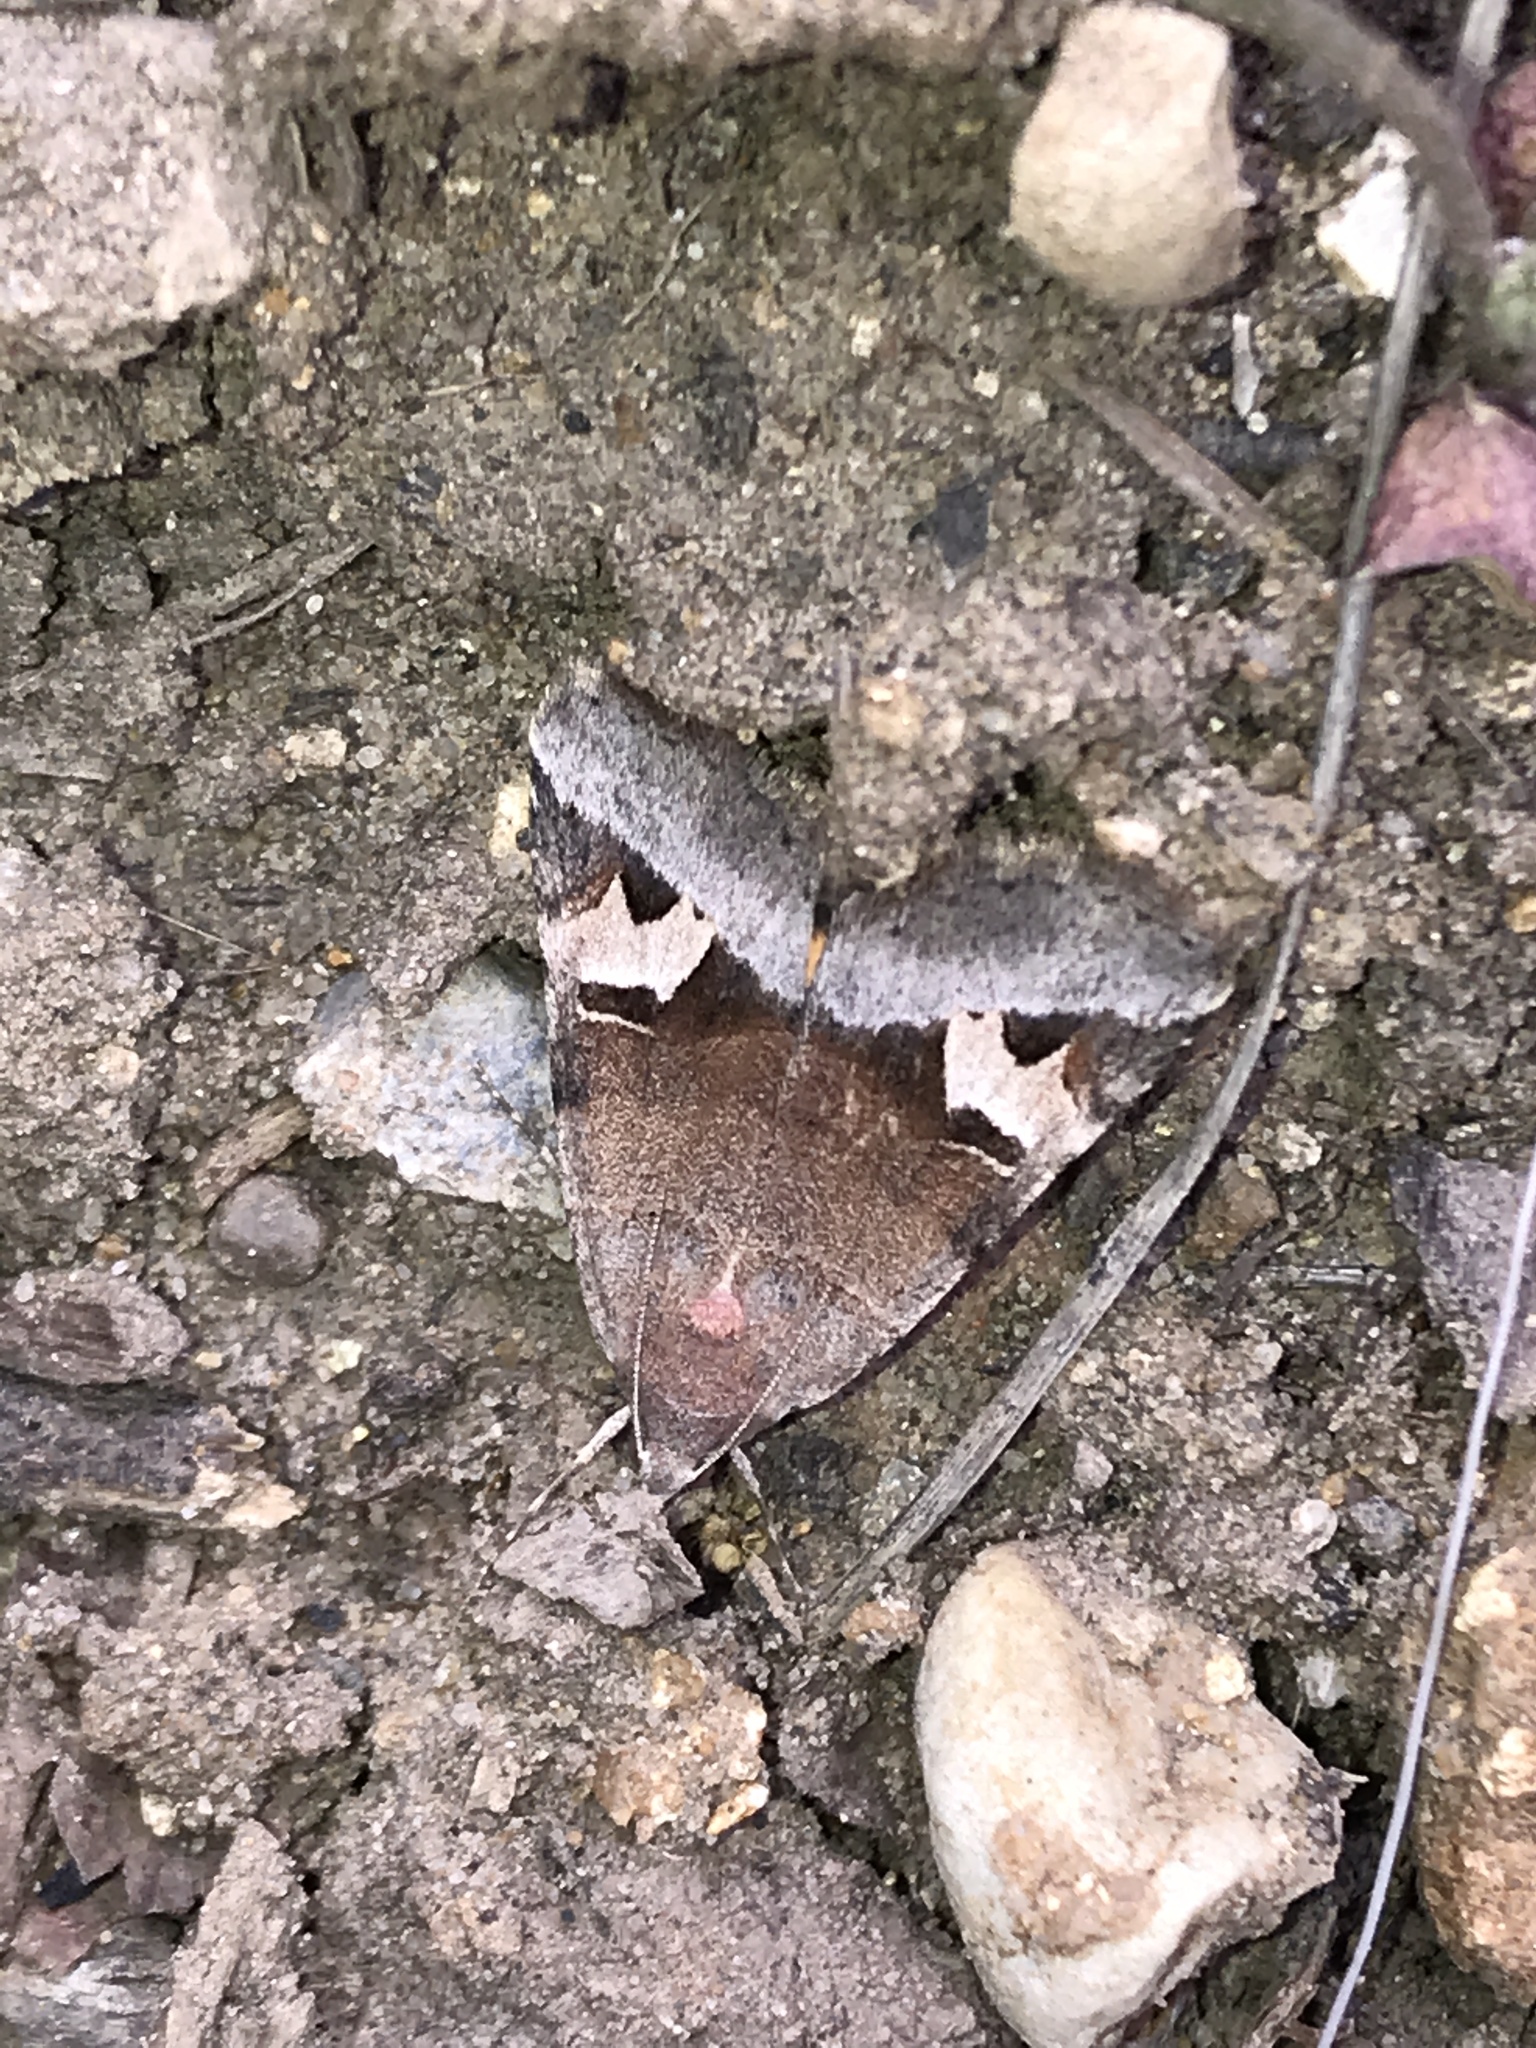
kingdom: Animalia
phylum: Arthropoda
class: Insecta
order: Lepidoptera
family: Erebidae
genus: Drasteria
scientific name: Drasteria perplexa
